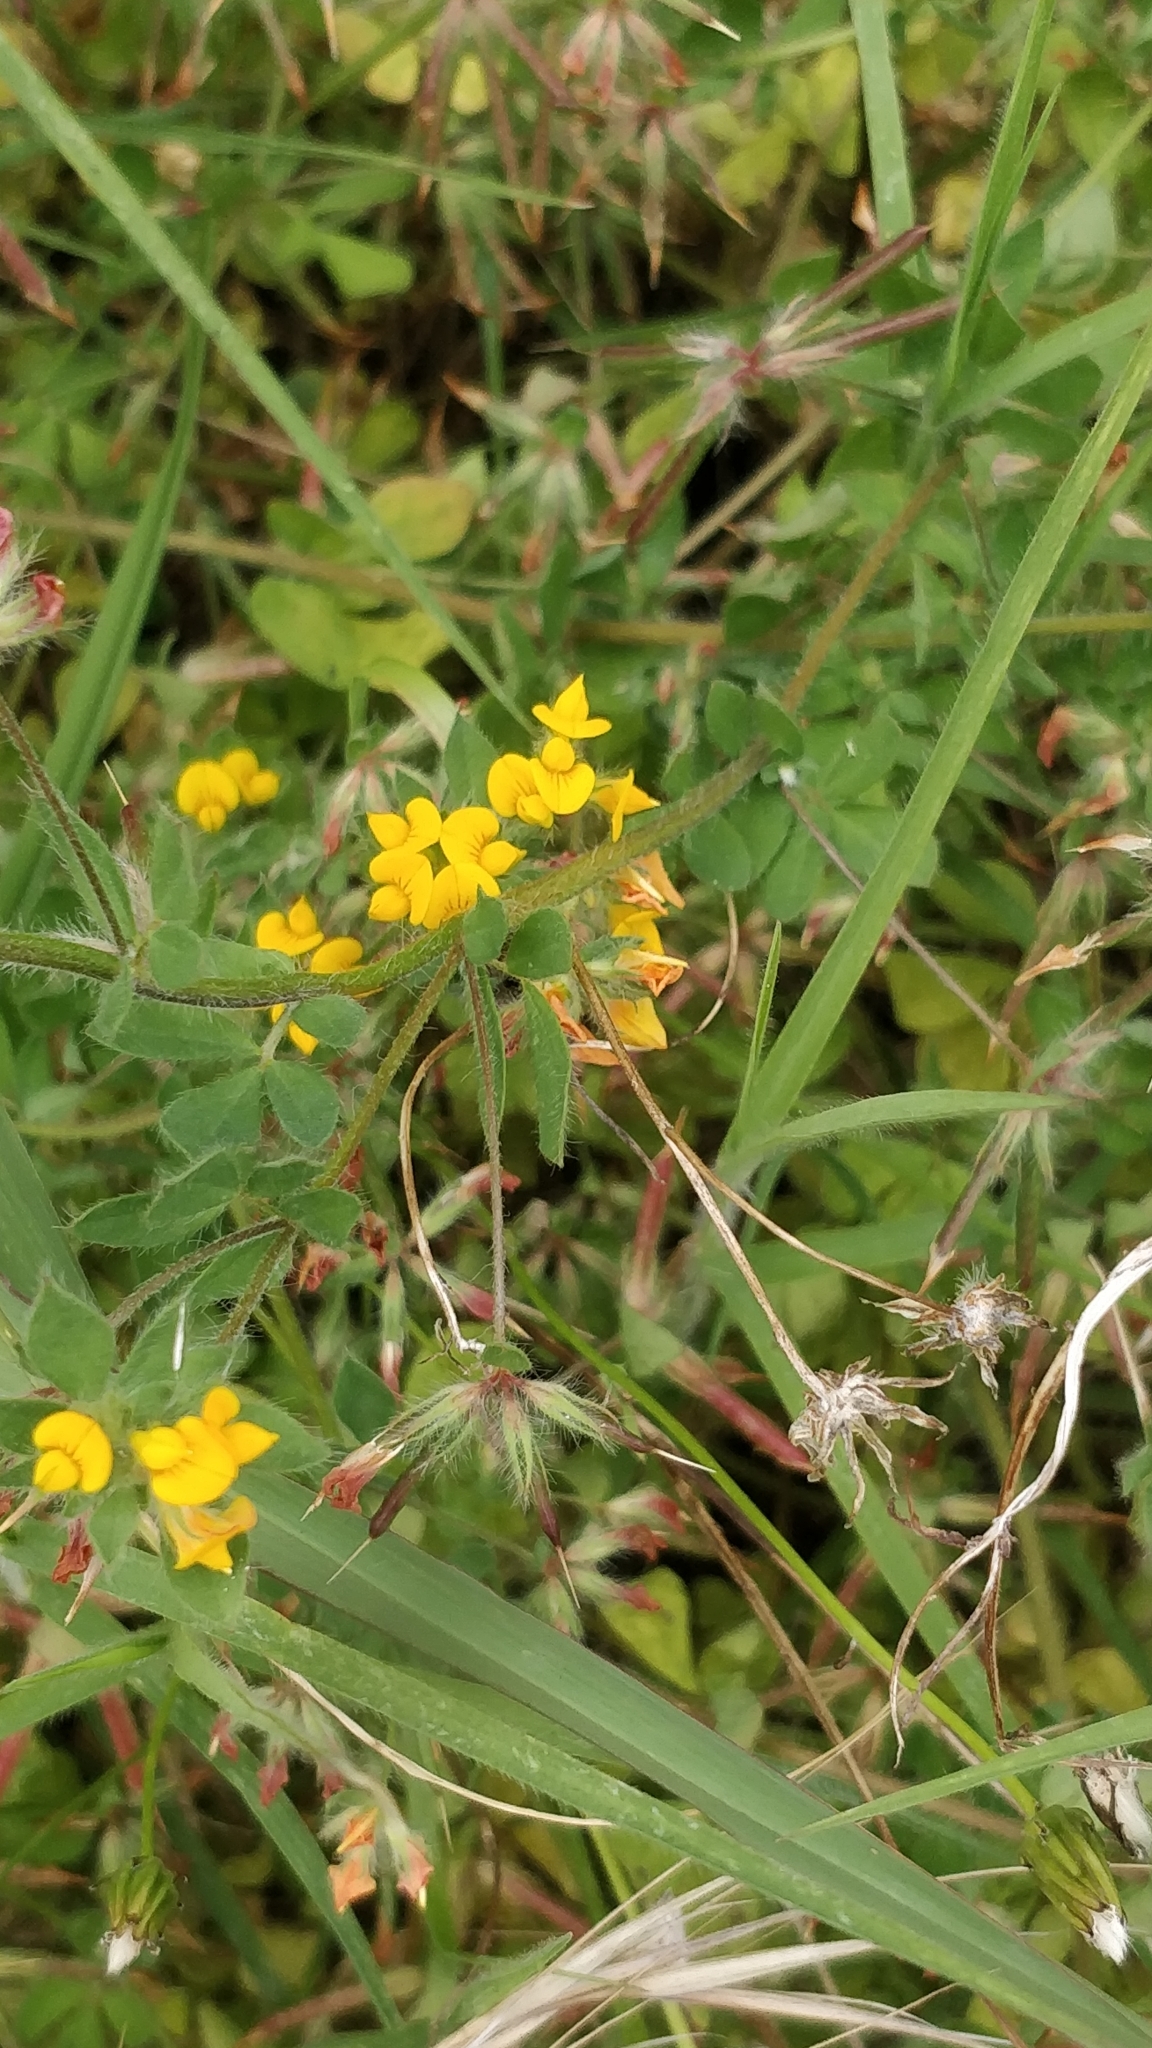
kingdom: Plantae
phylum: Tracheophyta
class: Magnoliopsida
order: Fabales
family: Fabaceae
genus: Lotus
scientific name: Lotus hispidus
